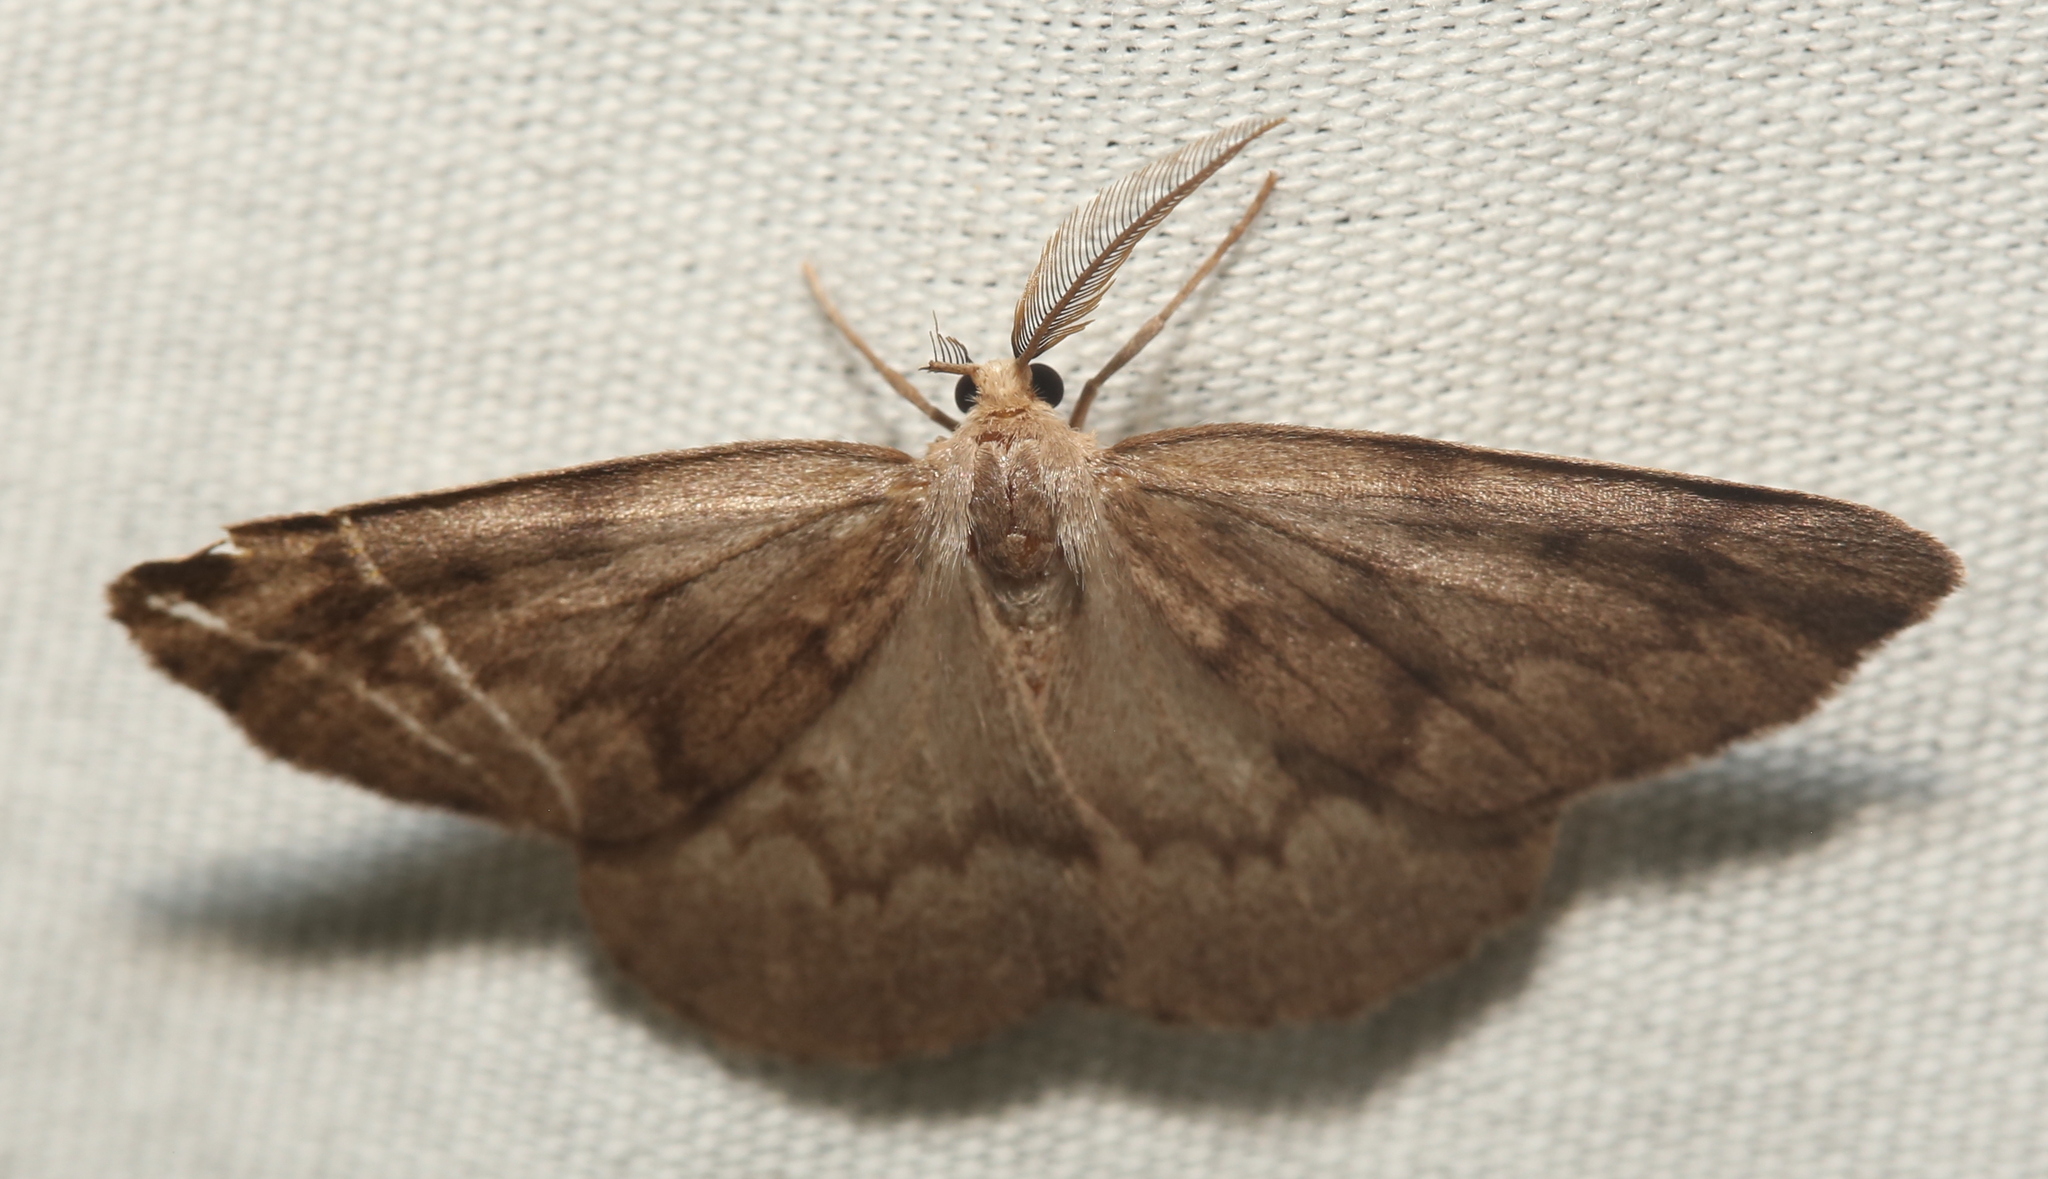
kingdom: Animalia
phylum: Arthropoda
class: Insecta
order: Lepidoptera
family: Geometridae
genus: Nepytia
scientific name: Nepytia semiclusaria
